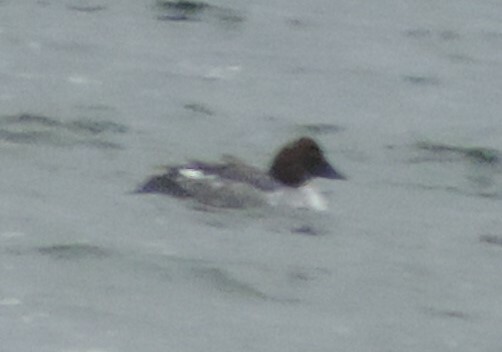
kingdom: Animalia
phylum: Chordata
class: Aves
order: Anseriformes
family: Anatidae
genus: Bucephala
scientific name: Bucephala clangula
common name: Common goldeneye
